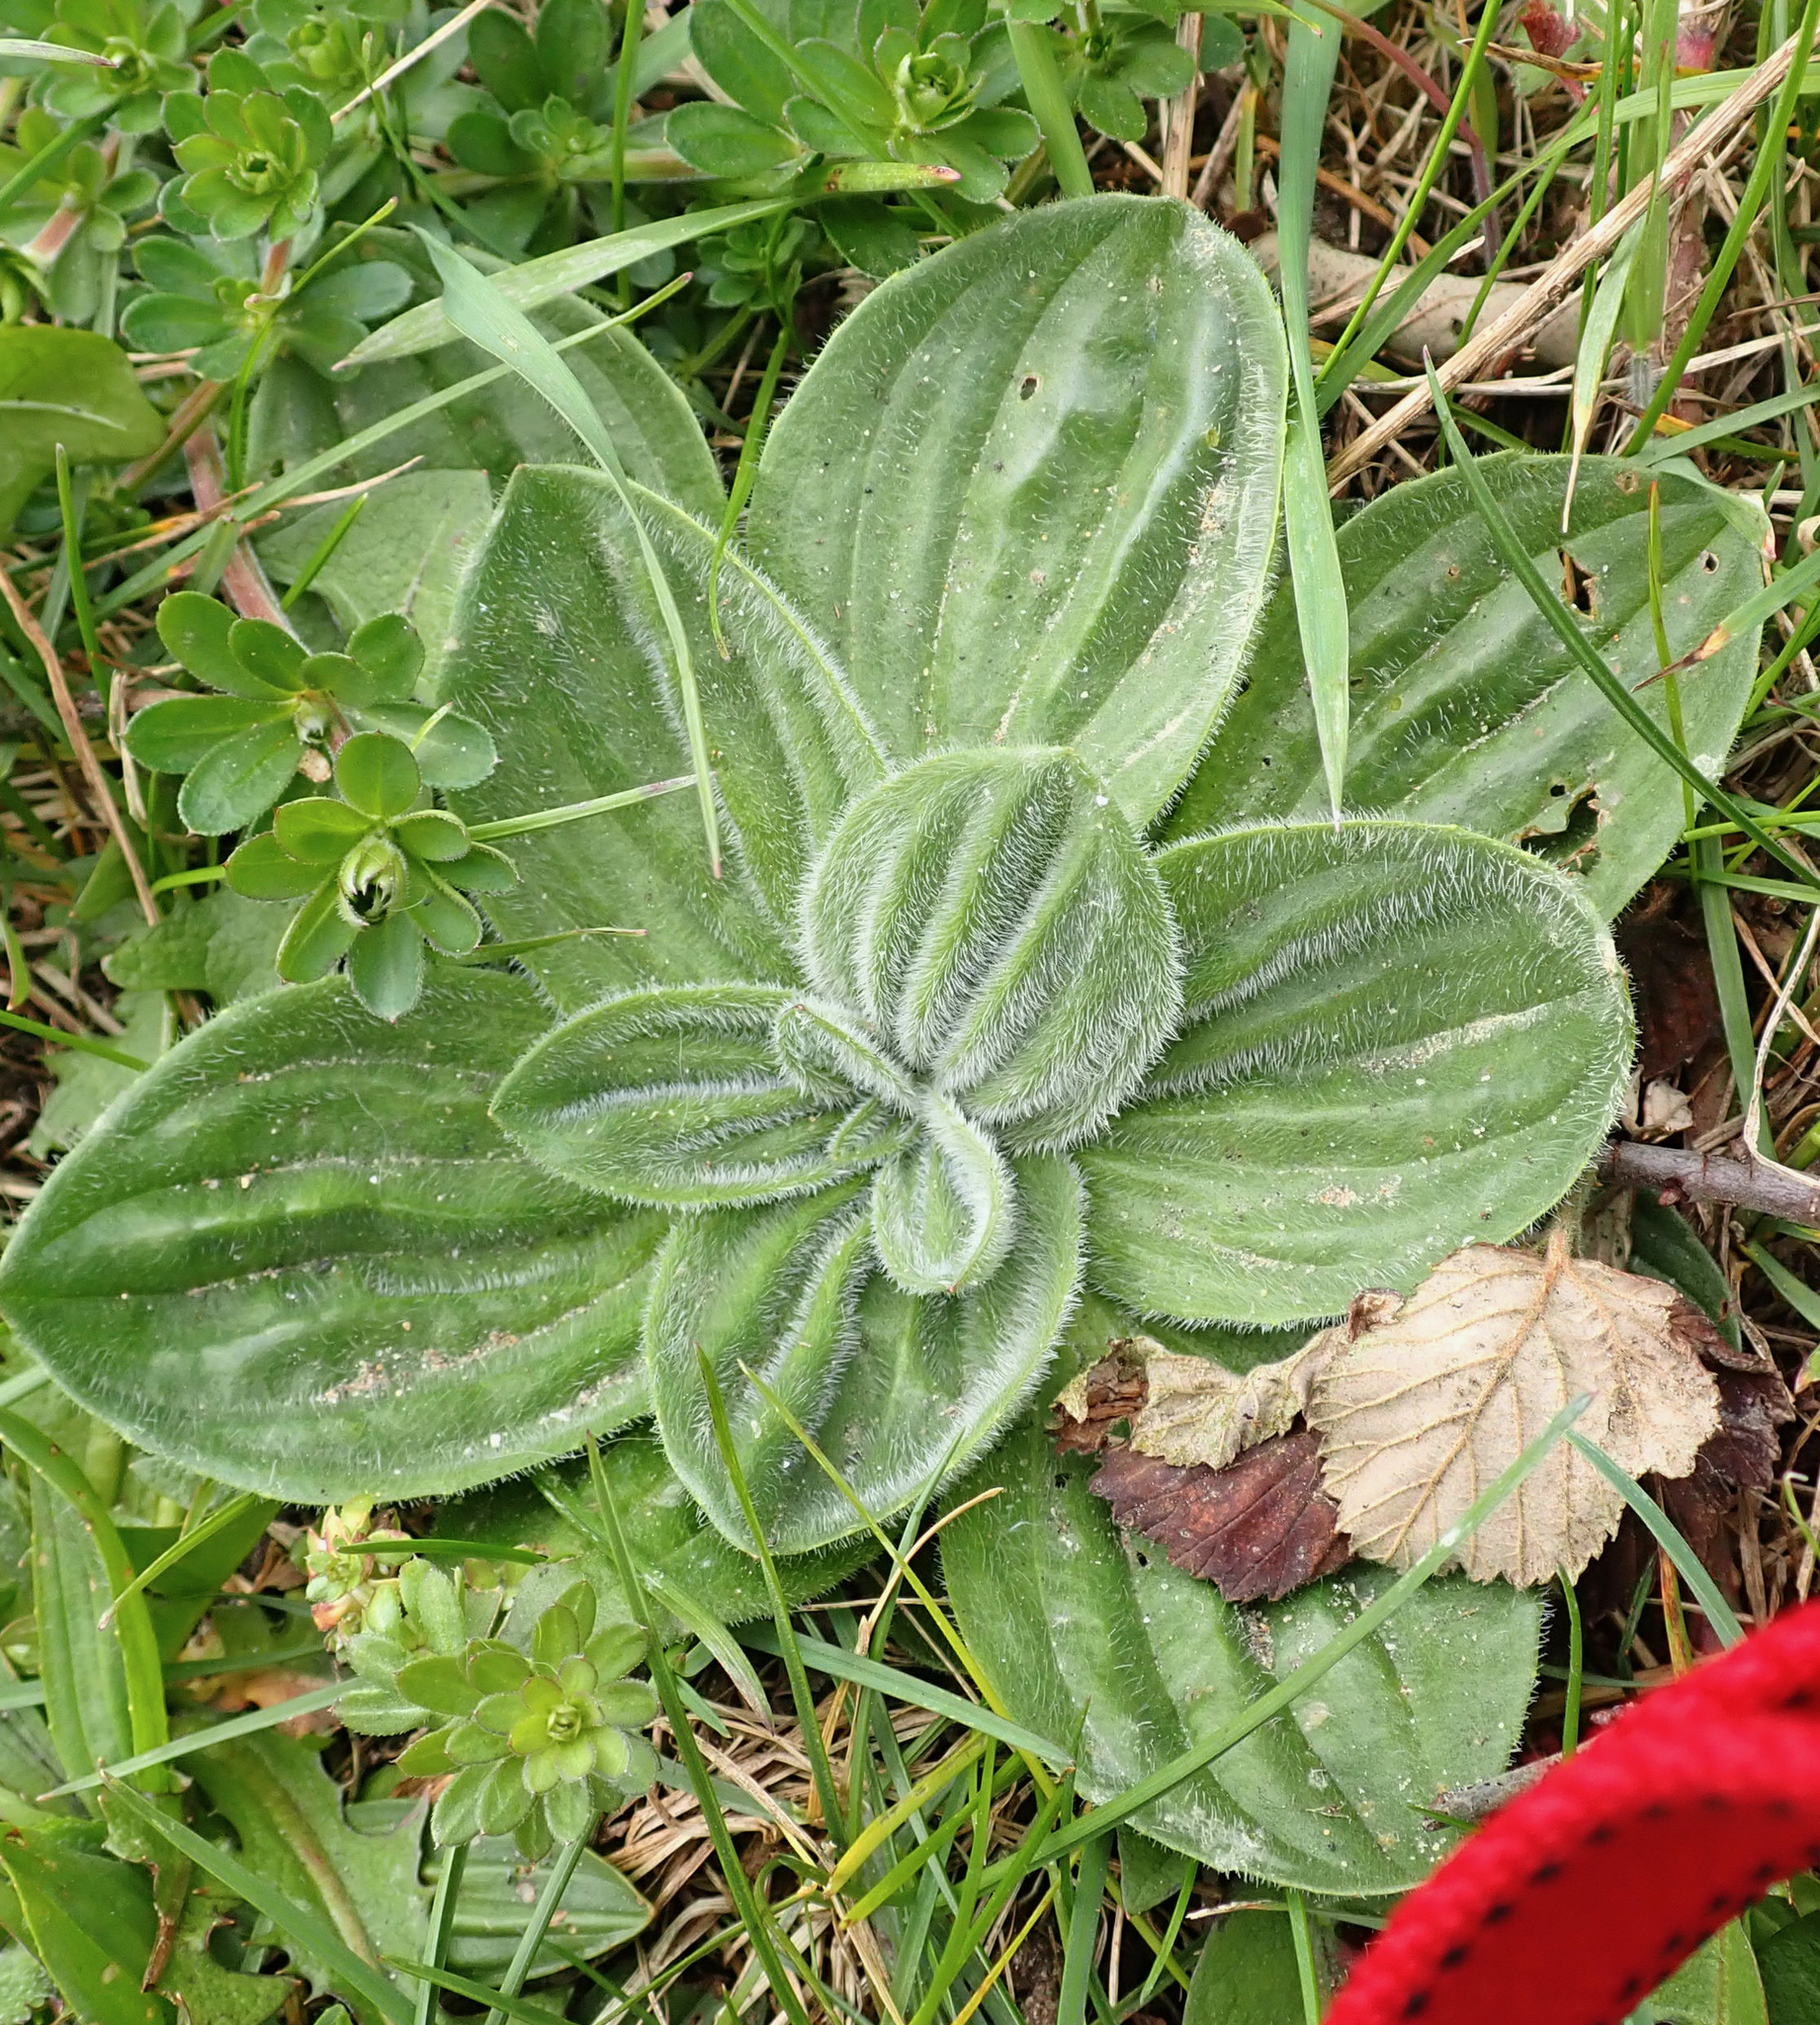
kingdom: Plantae
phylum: Tracheophyta
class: Magnoliopsida
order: Lamiales
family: Plantaginaceae
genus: Plantago
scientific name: Plantago media
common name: Hoary plantain
